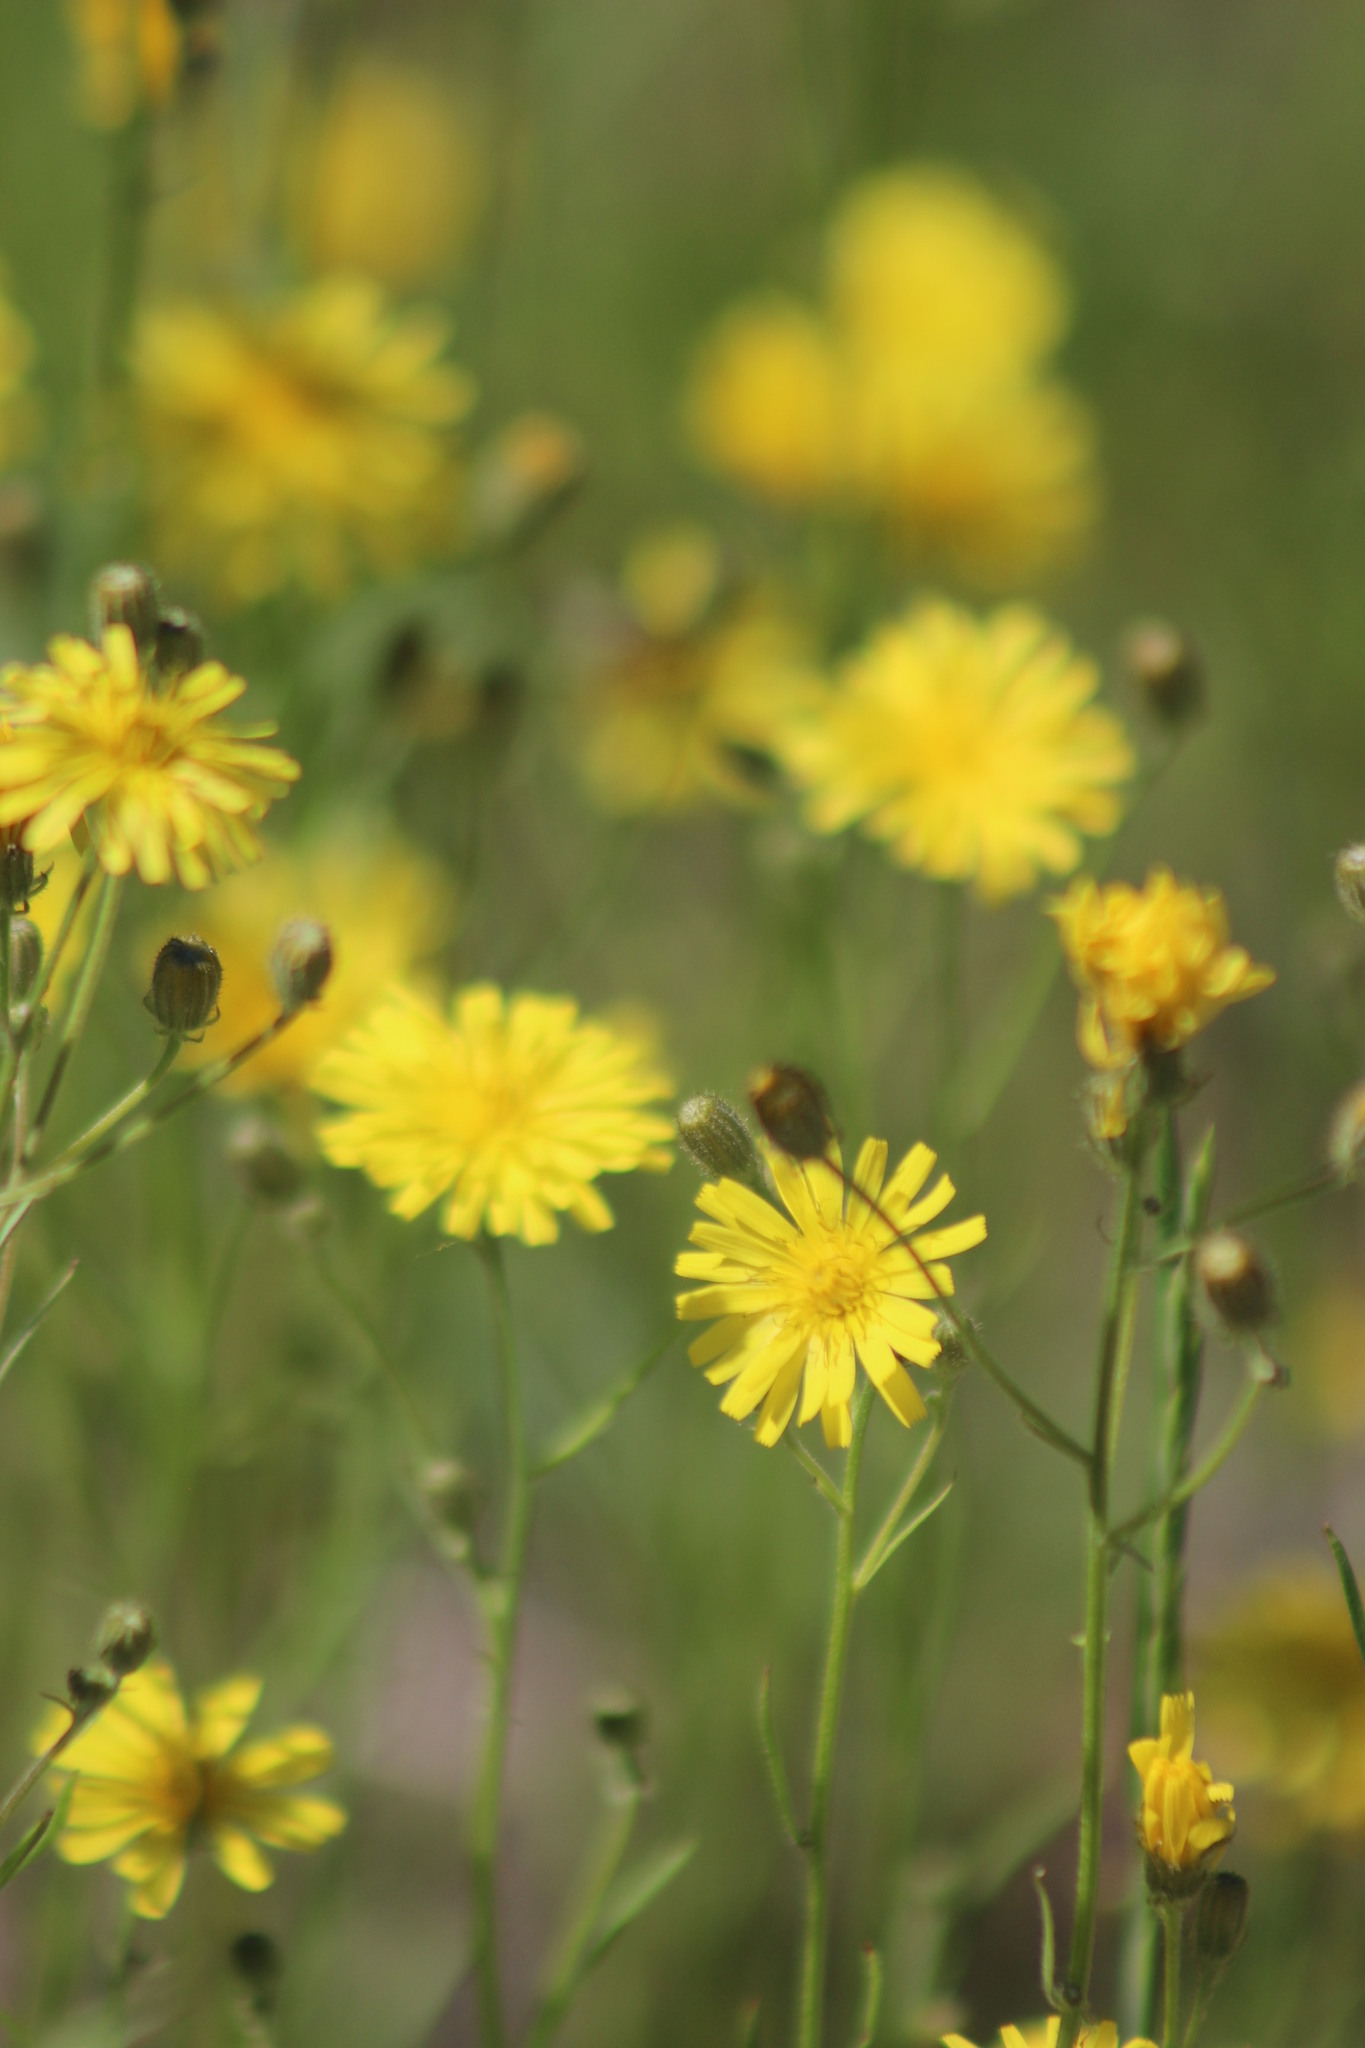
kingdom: Plantae
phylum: Tracheophyta
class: Magnoliopsida
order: Asterales
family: Asteraceae
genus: Crepis
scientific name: Crepis tectorum
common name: Narrow-leaved hawk's-beard
